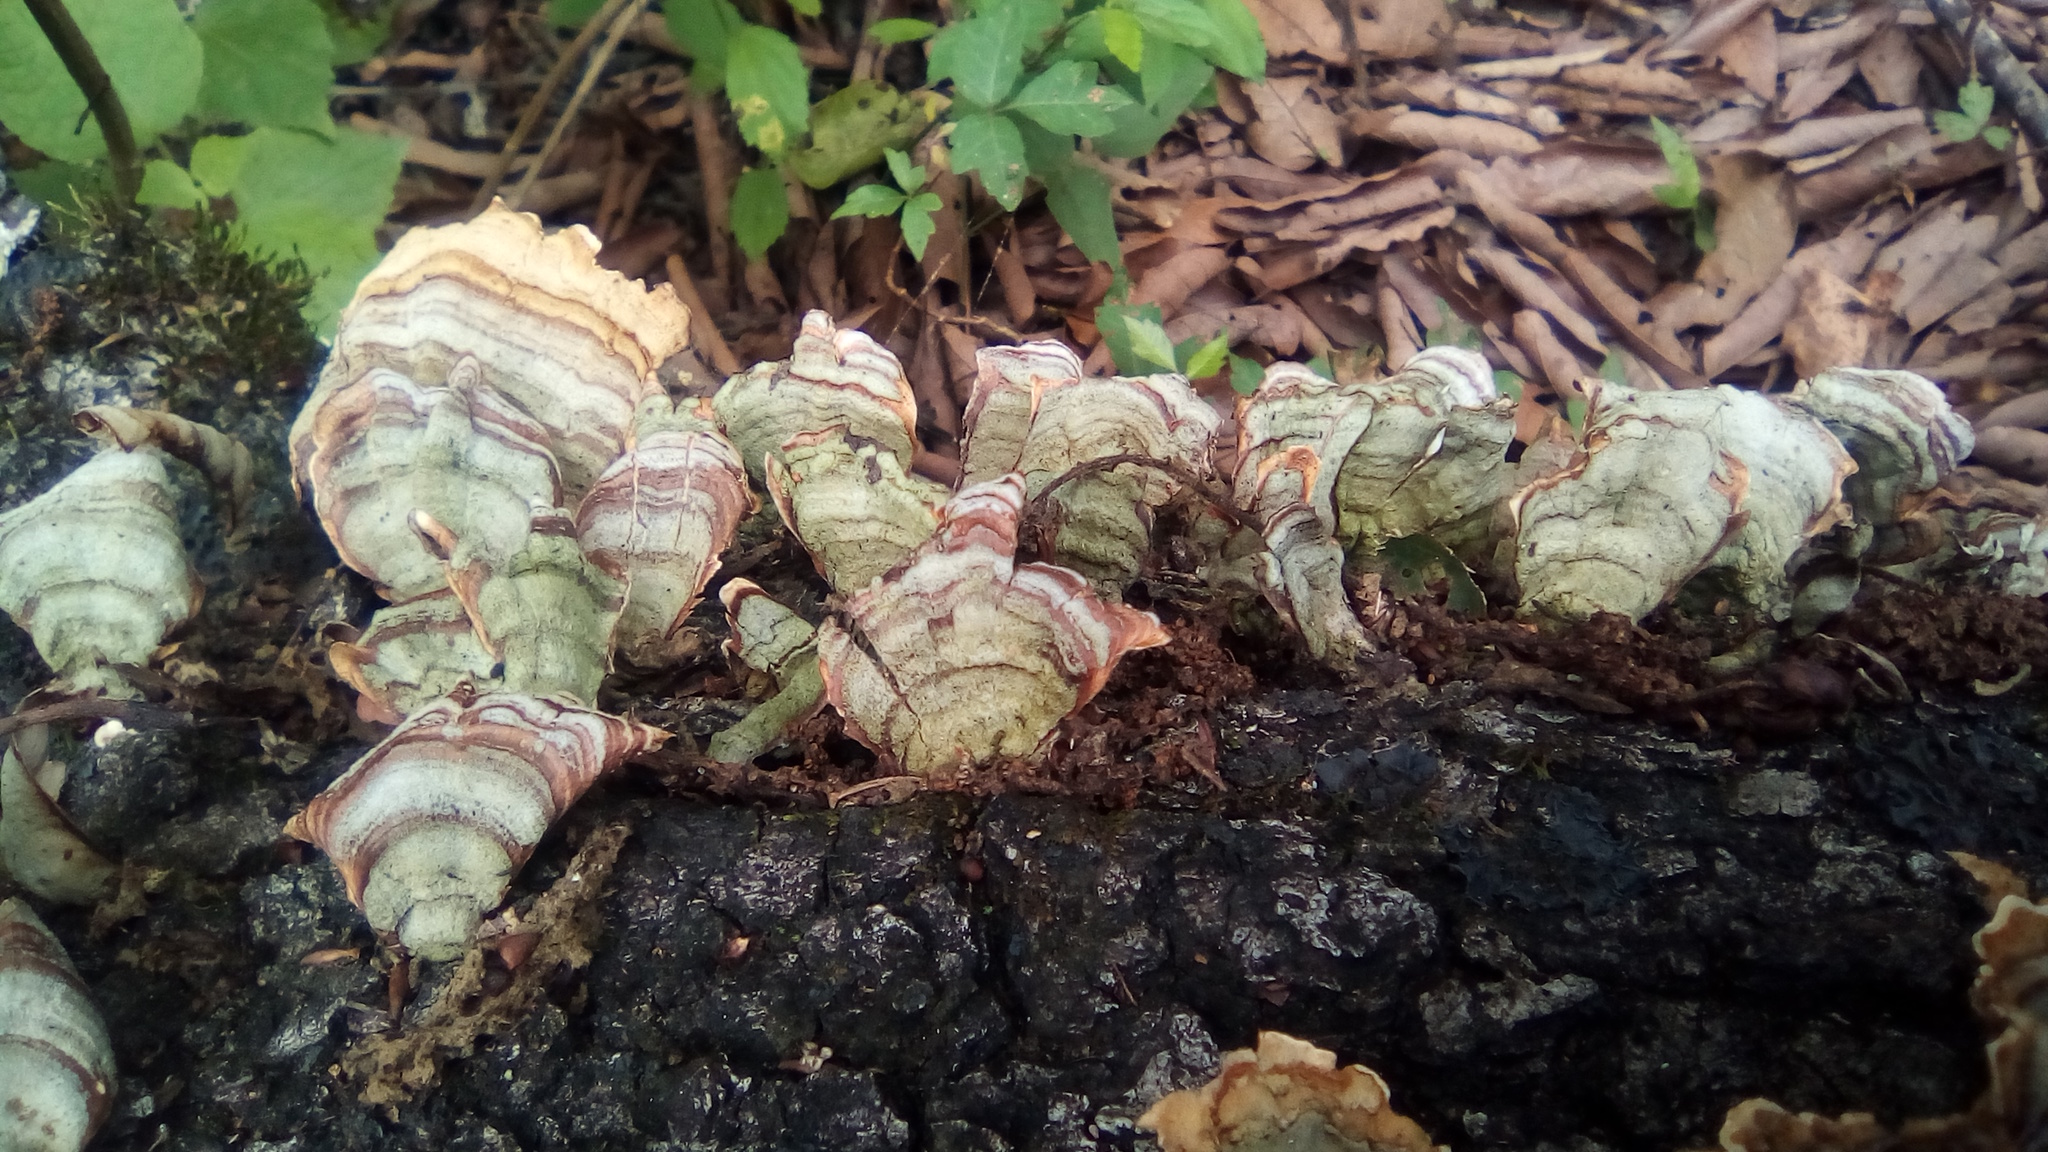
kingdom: Fungi
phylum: Basidiomycota
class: Agaricomycetes
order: Russulales
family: Stereaceae
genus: Stereum
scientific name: Stereum lobatum
